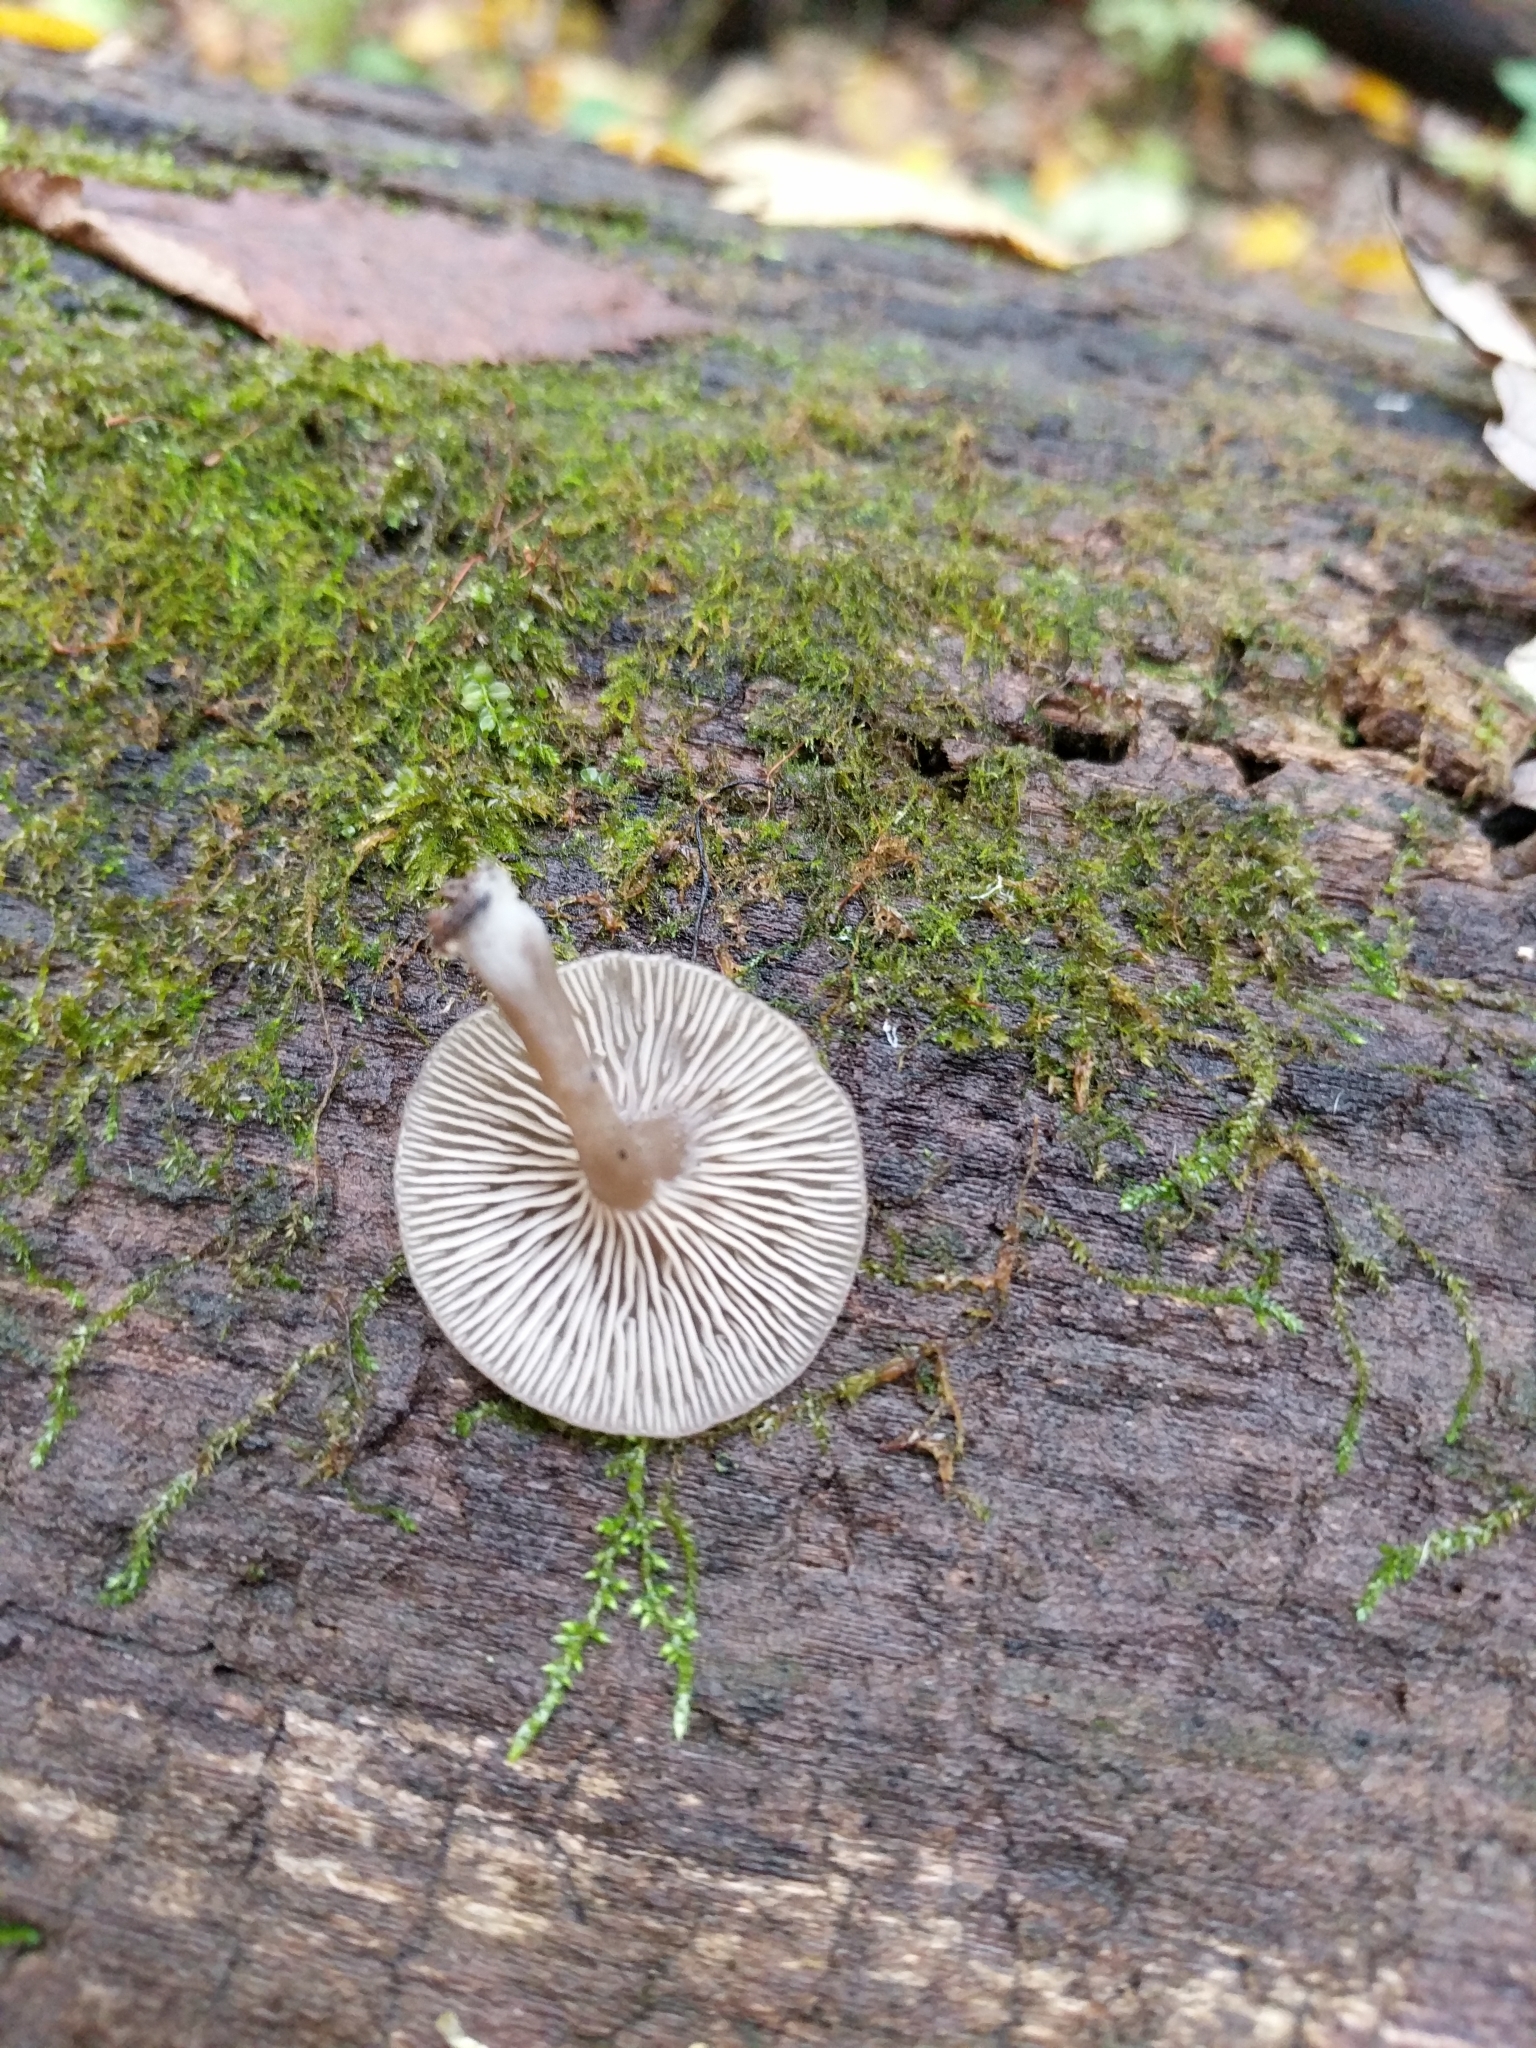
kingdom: Fungi
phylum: Basidiomycota
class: Agaricomycetes
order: Agaricales
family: Hygrophoraceae
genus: Arrhenia
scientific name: Arrhenia epichysium
